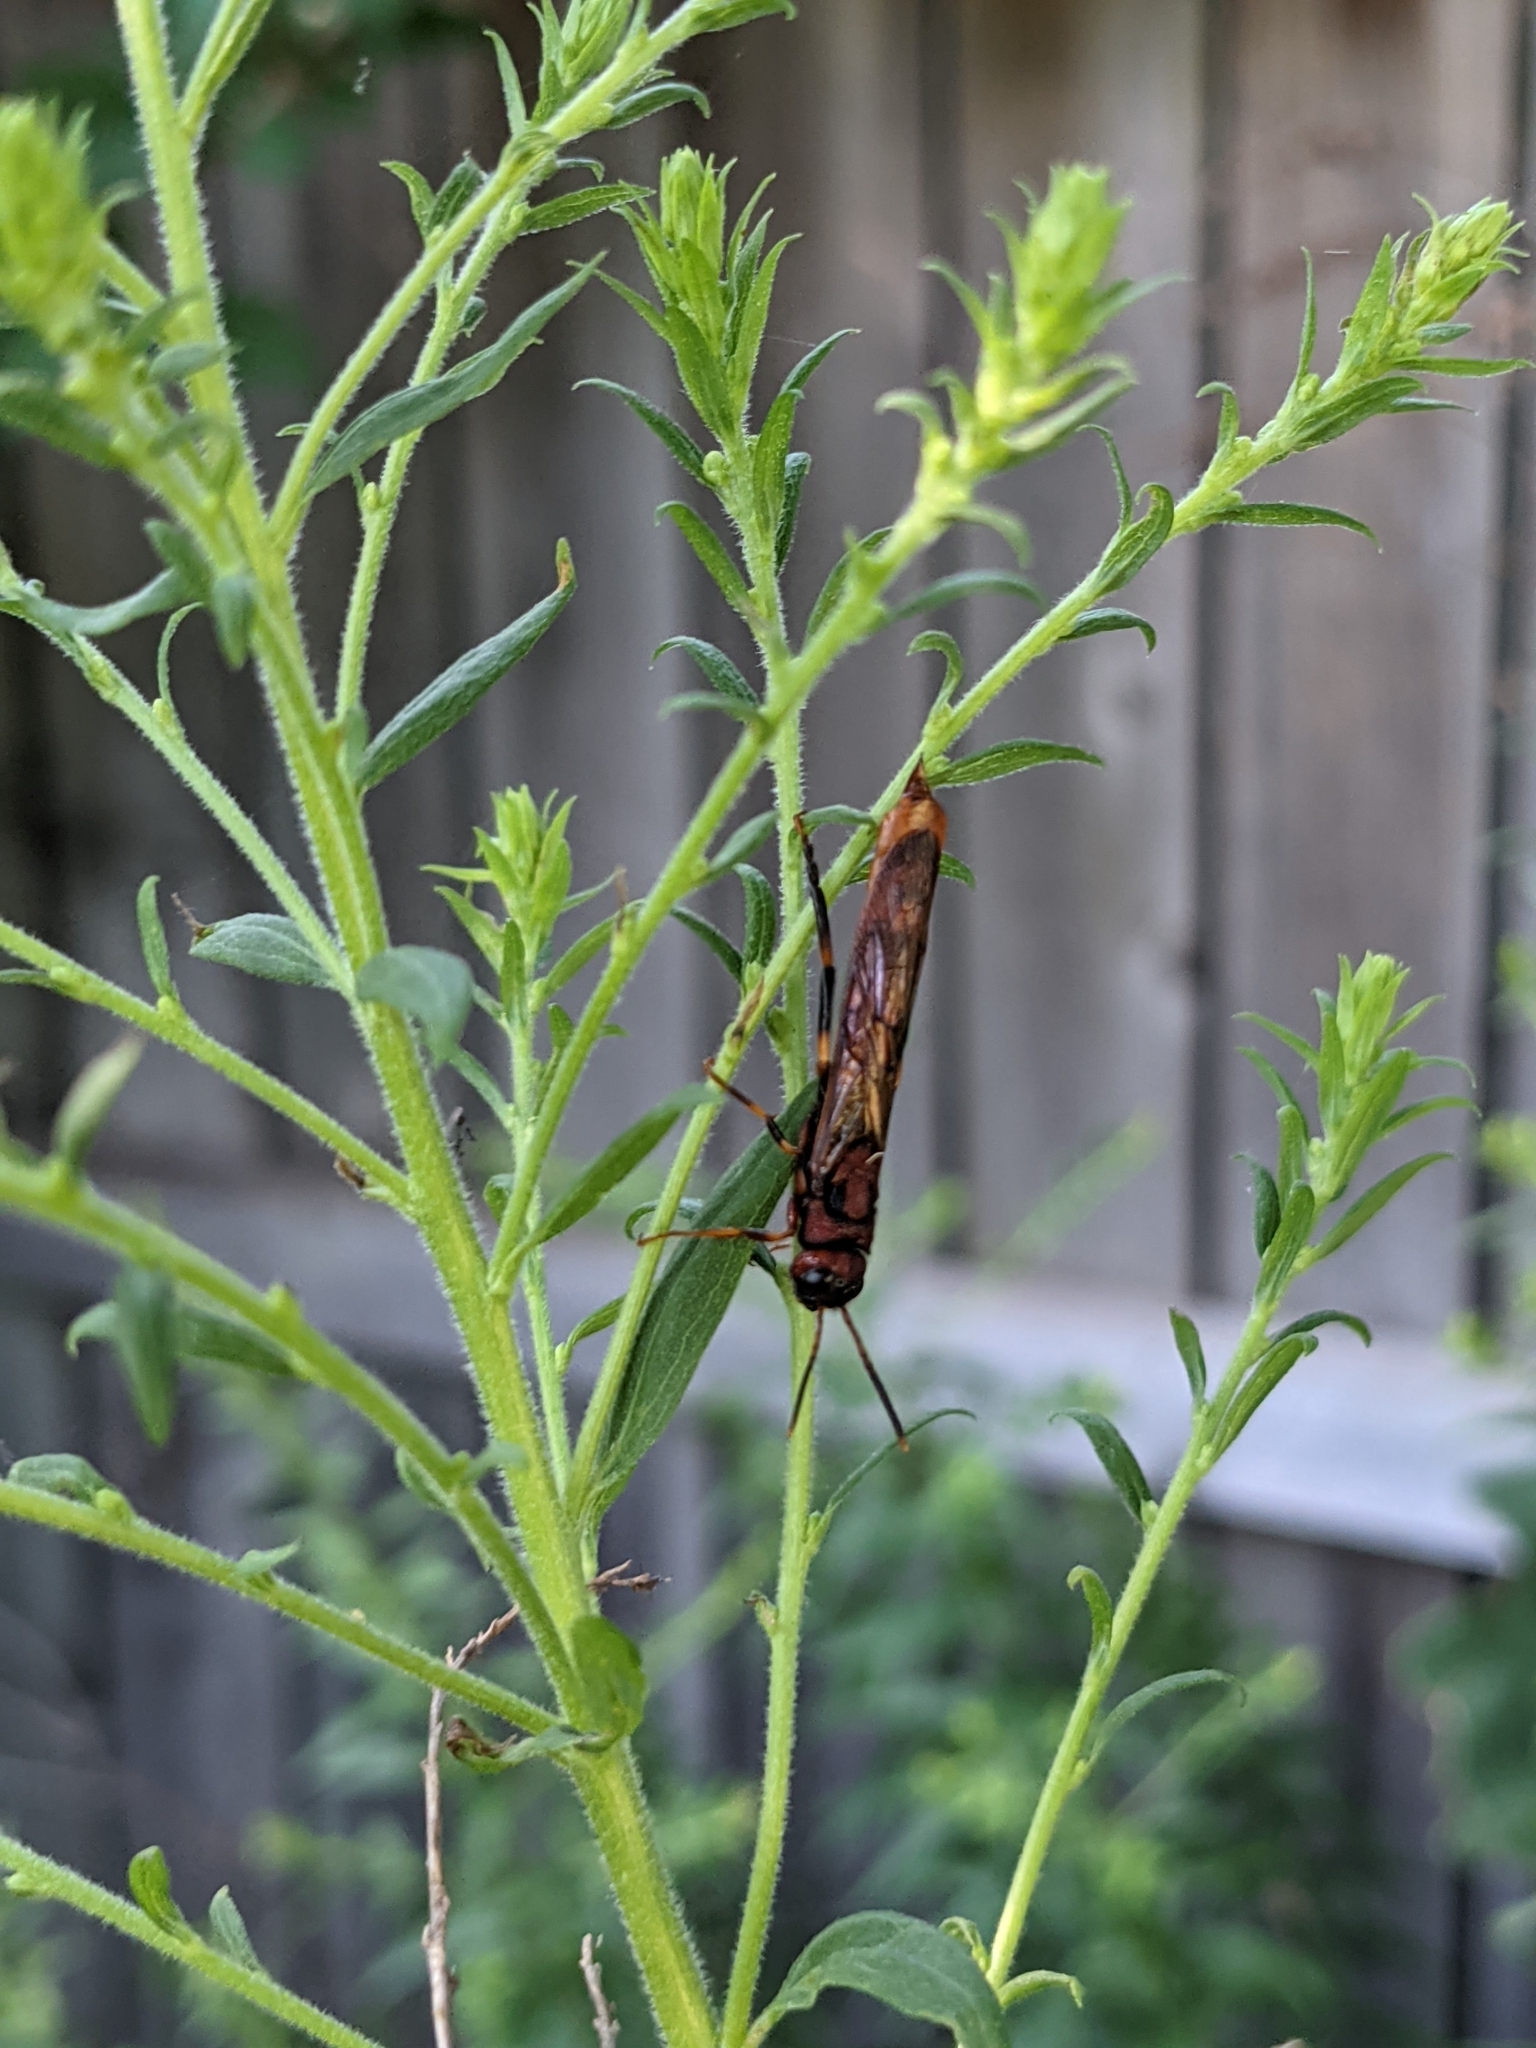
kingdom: Animalia
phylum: Arthropoda
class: Insecta
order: Hymenoptera
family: Siricidae
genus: Tremex
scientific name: Tremex columba
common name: Wasp
